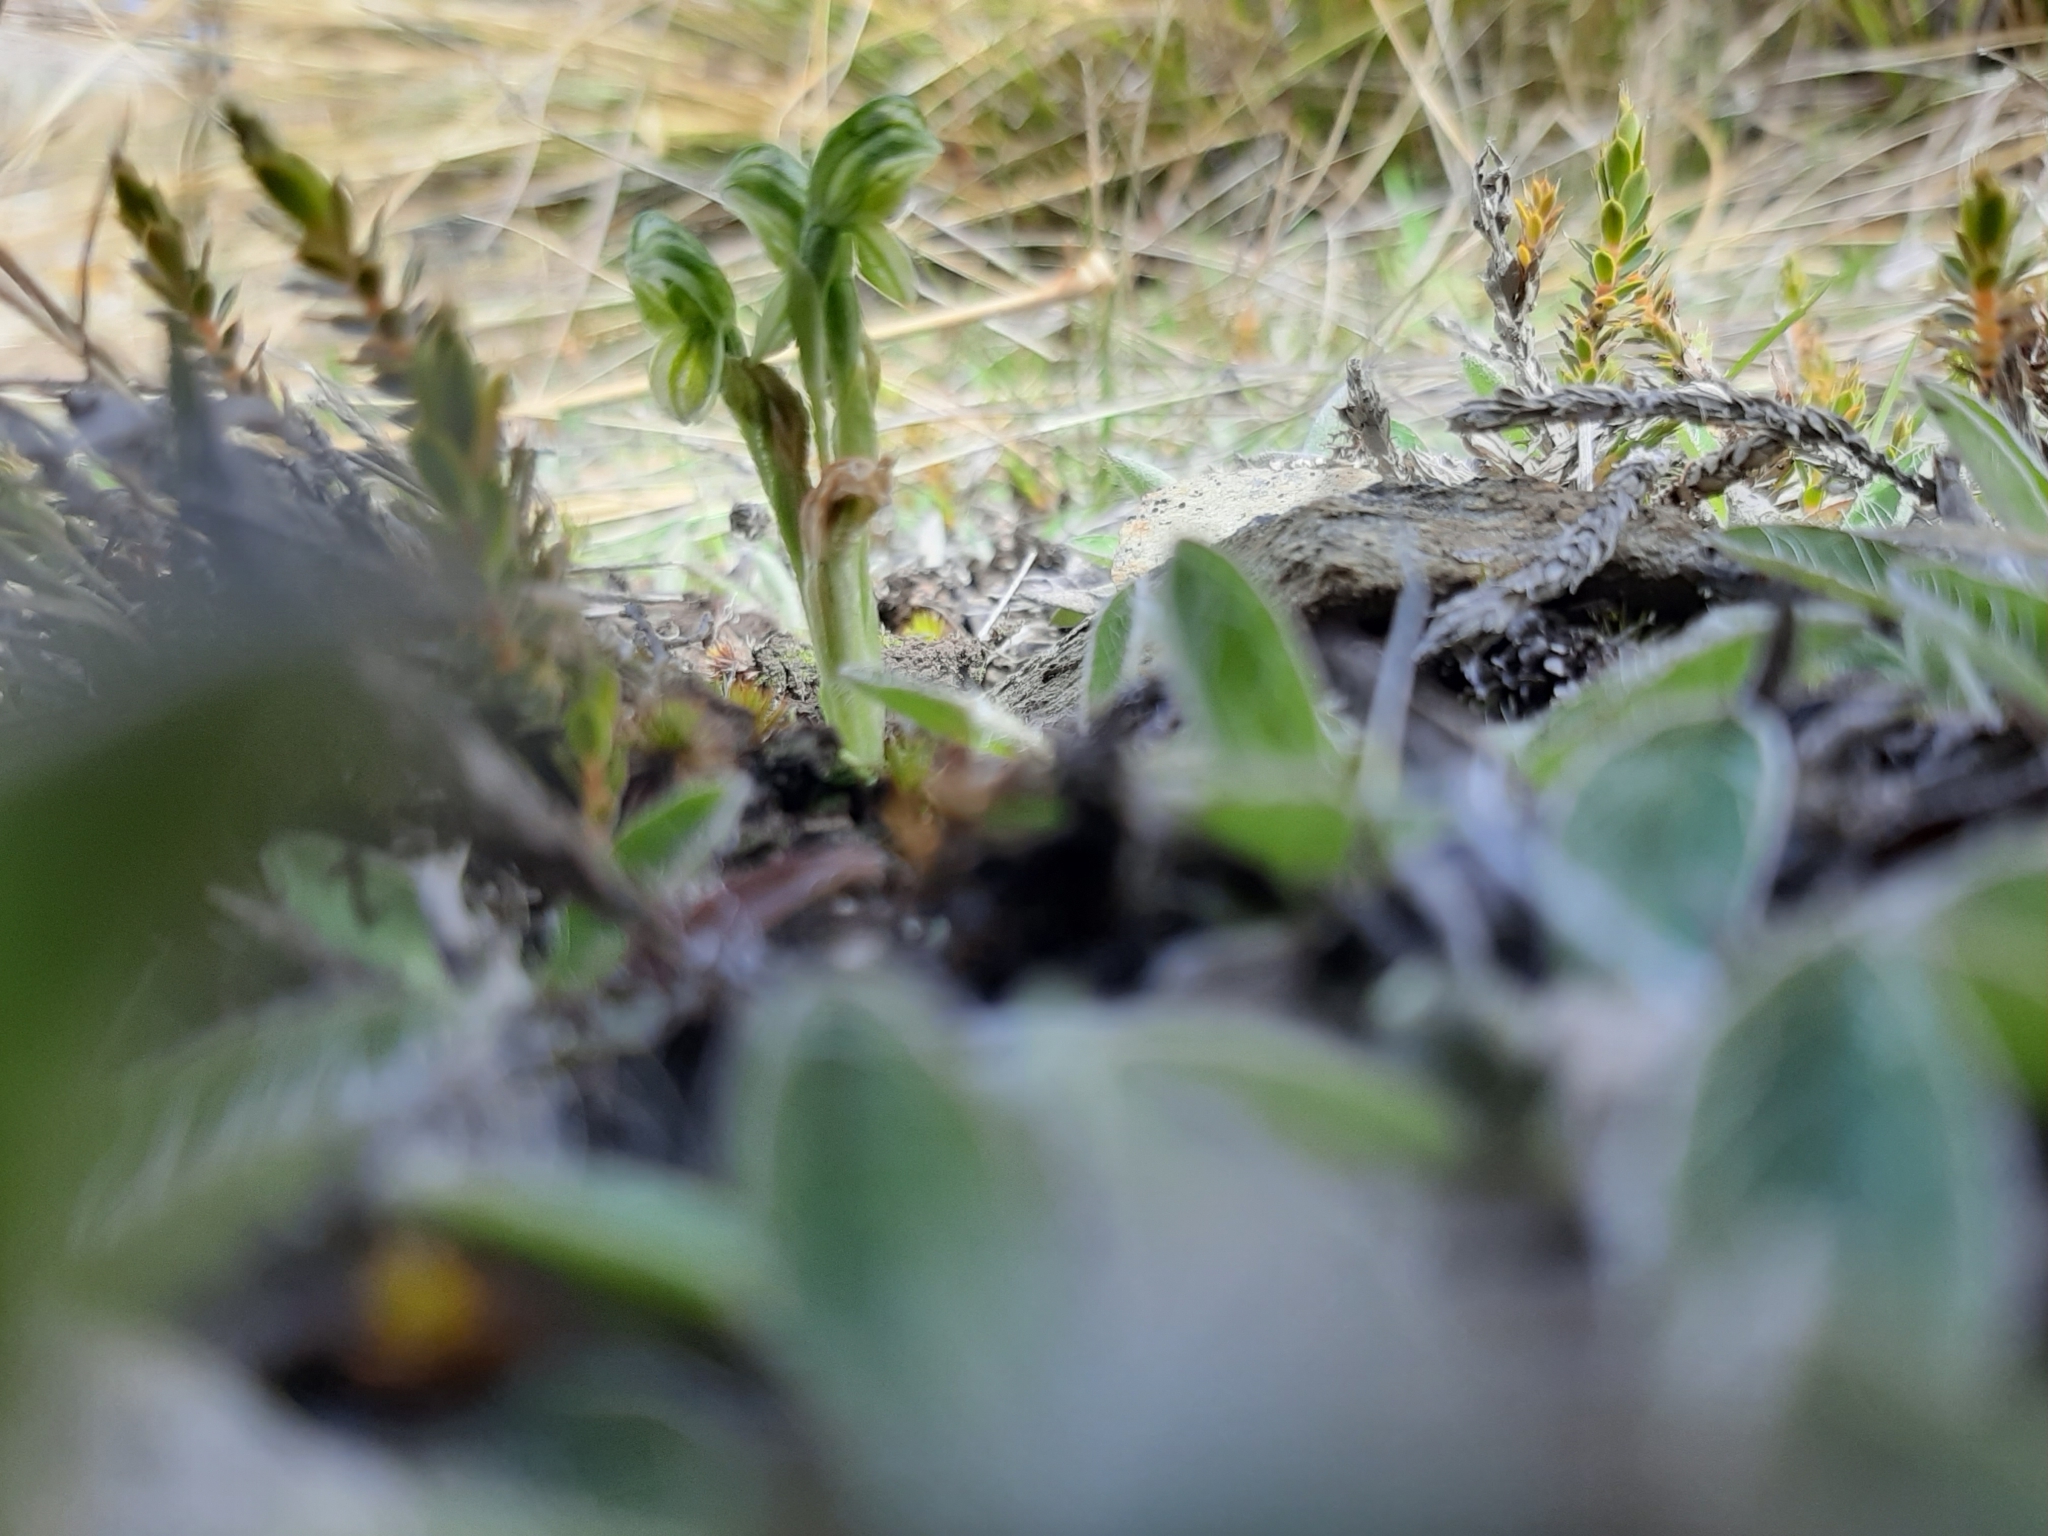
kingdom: Plantae
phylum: Tracheophyta
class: Liliopsida
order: Asparagales
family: Orchidaceae
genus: Pterostylis
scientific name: Pterostylis tanypoda
